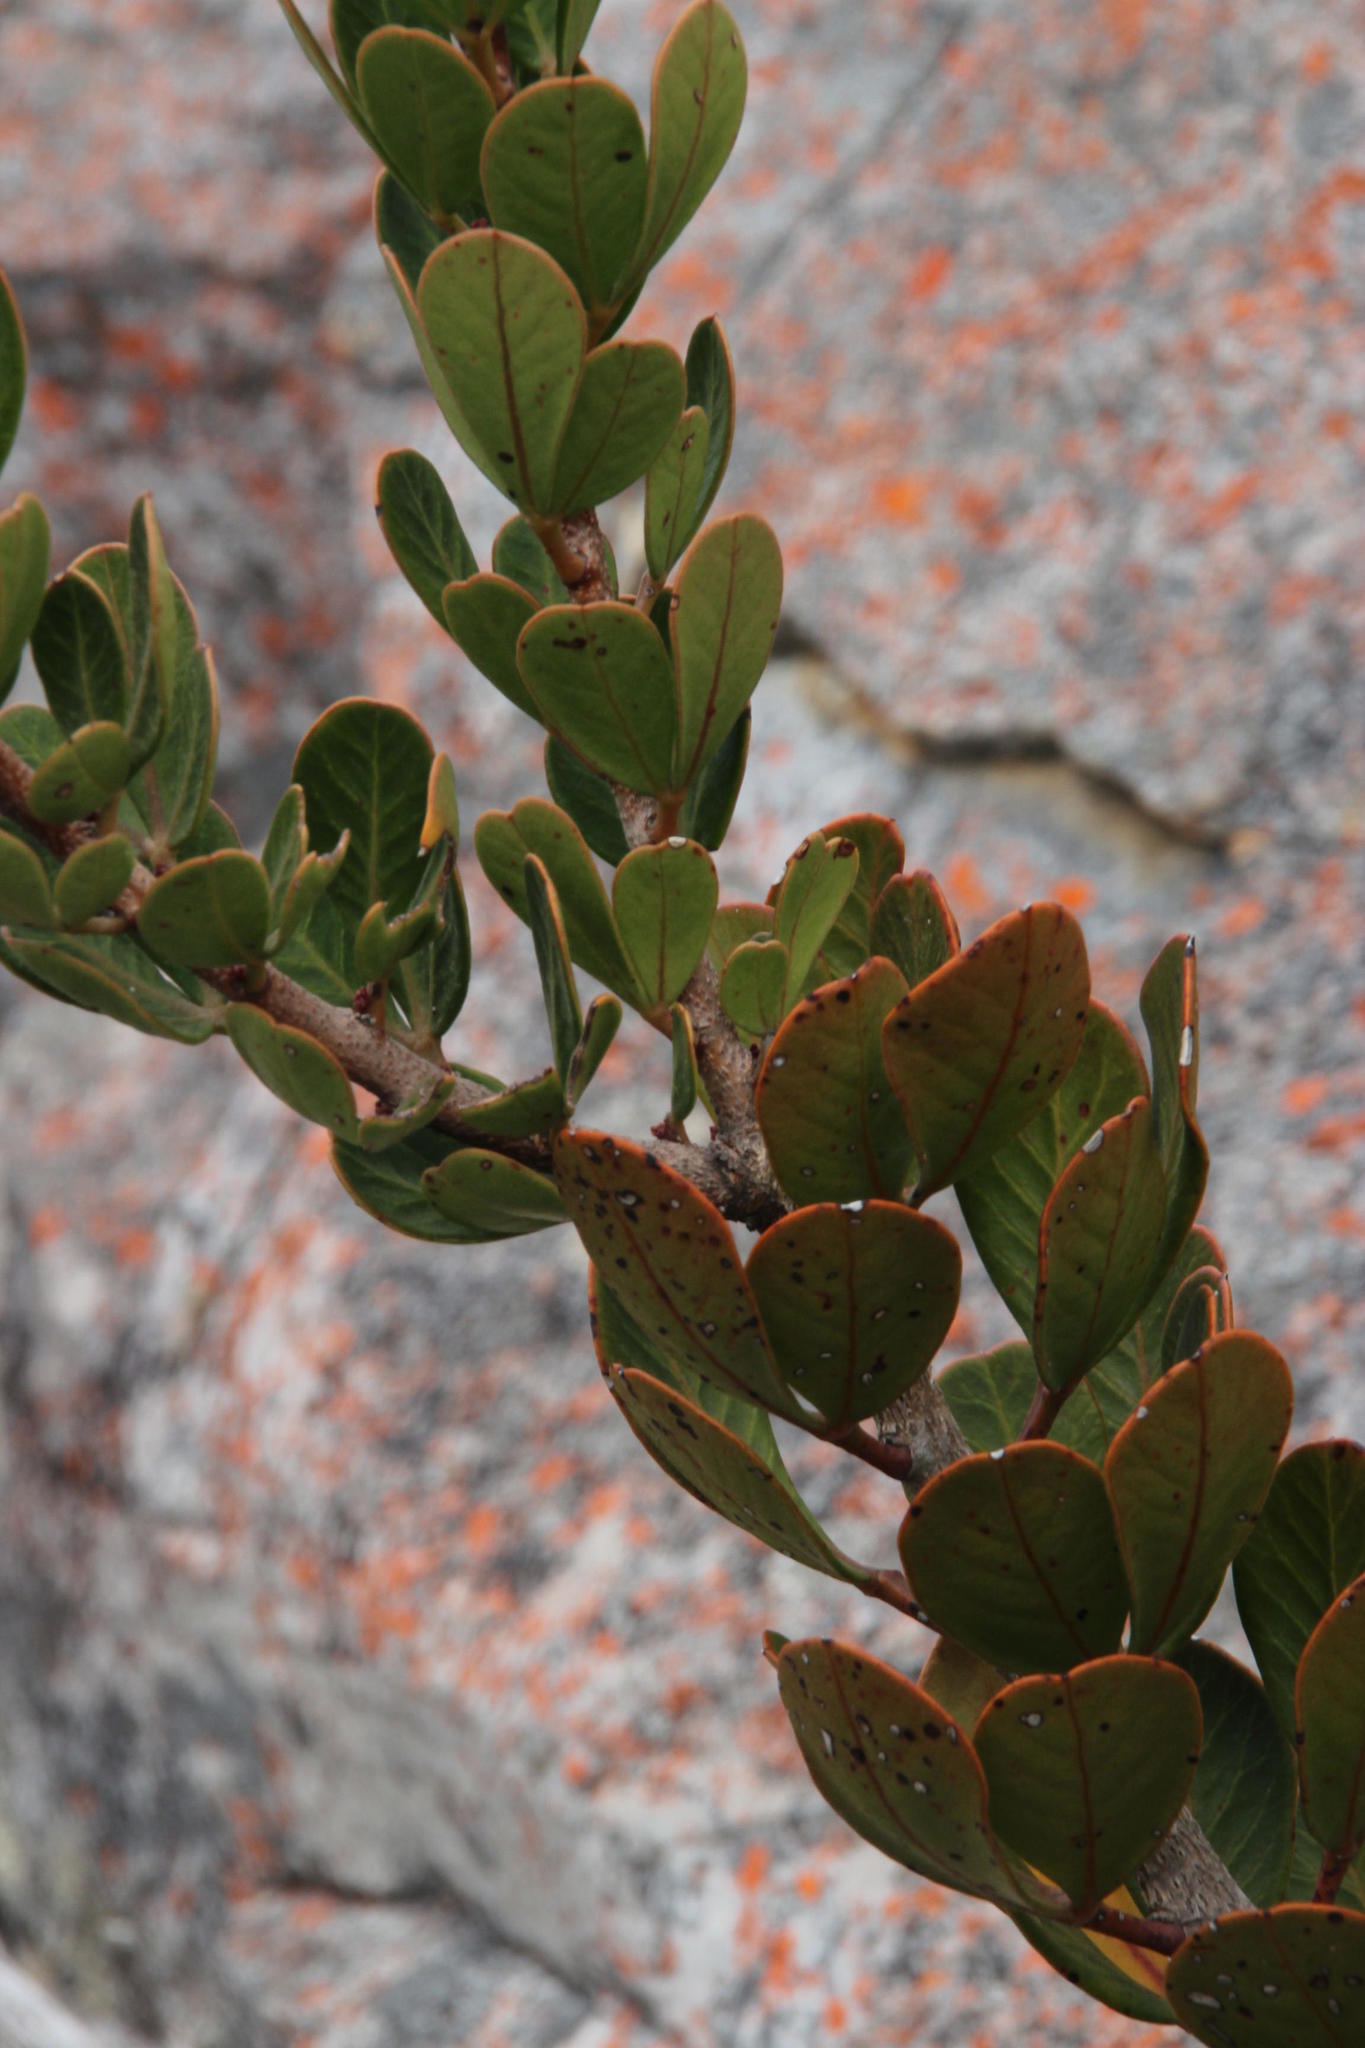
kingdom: Plantae
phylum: Tracheophyta
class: Magnoliopsida
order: Sapindales
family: Anacardiaceae
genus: Searsia
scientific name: Searsia scytophylla
